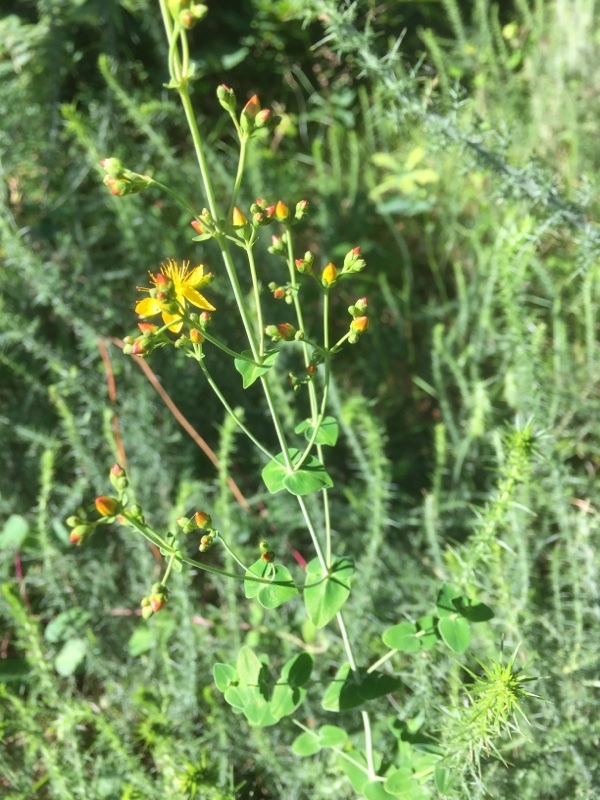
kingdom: Plantae
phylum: Tracheophyta
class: Magnoliopsida
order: Malpighiales
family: Hypericaceae
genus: Hypericum
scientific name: Hypericum pulchrum
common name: Slender st. john's-wort
